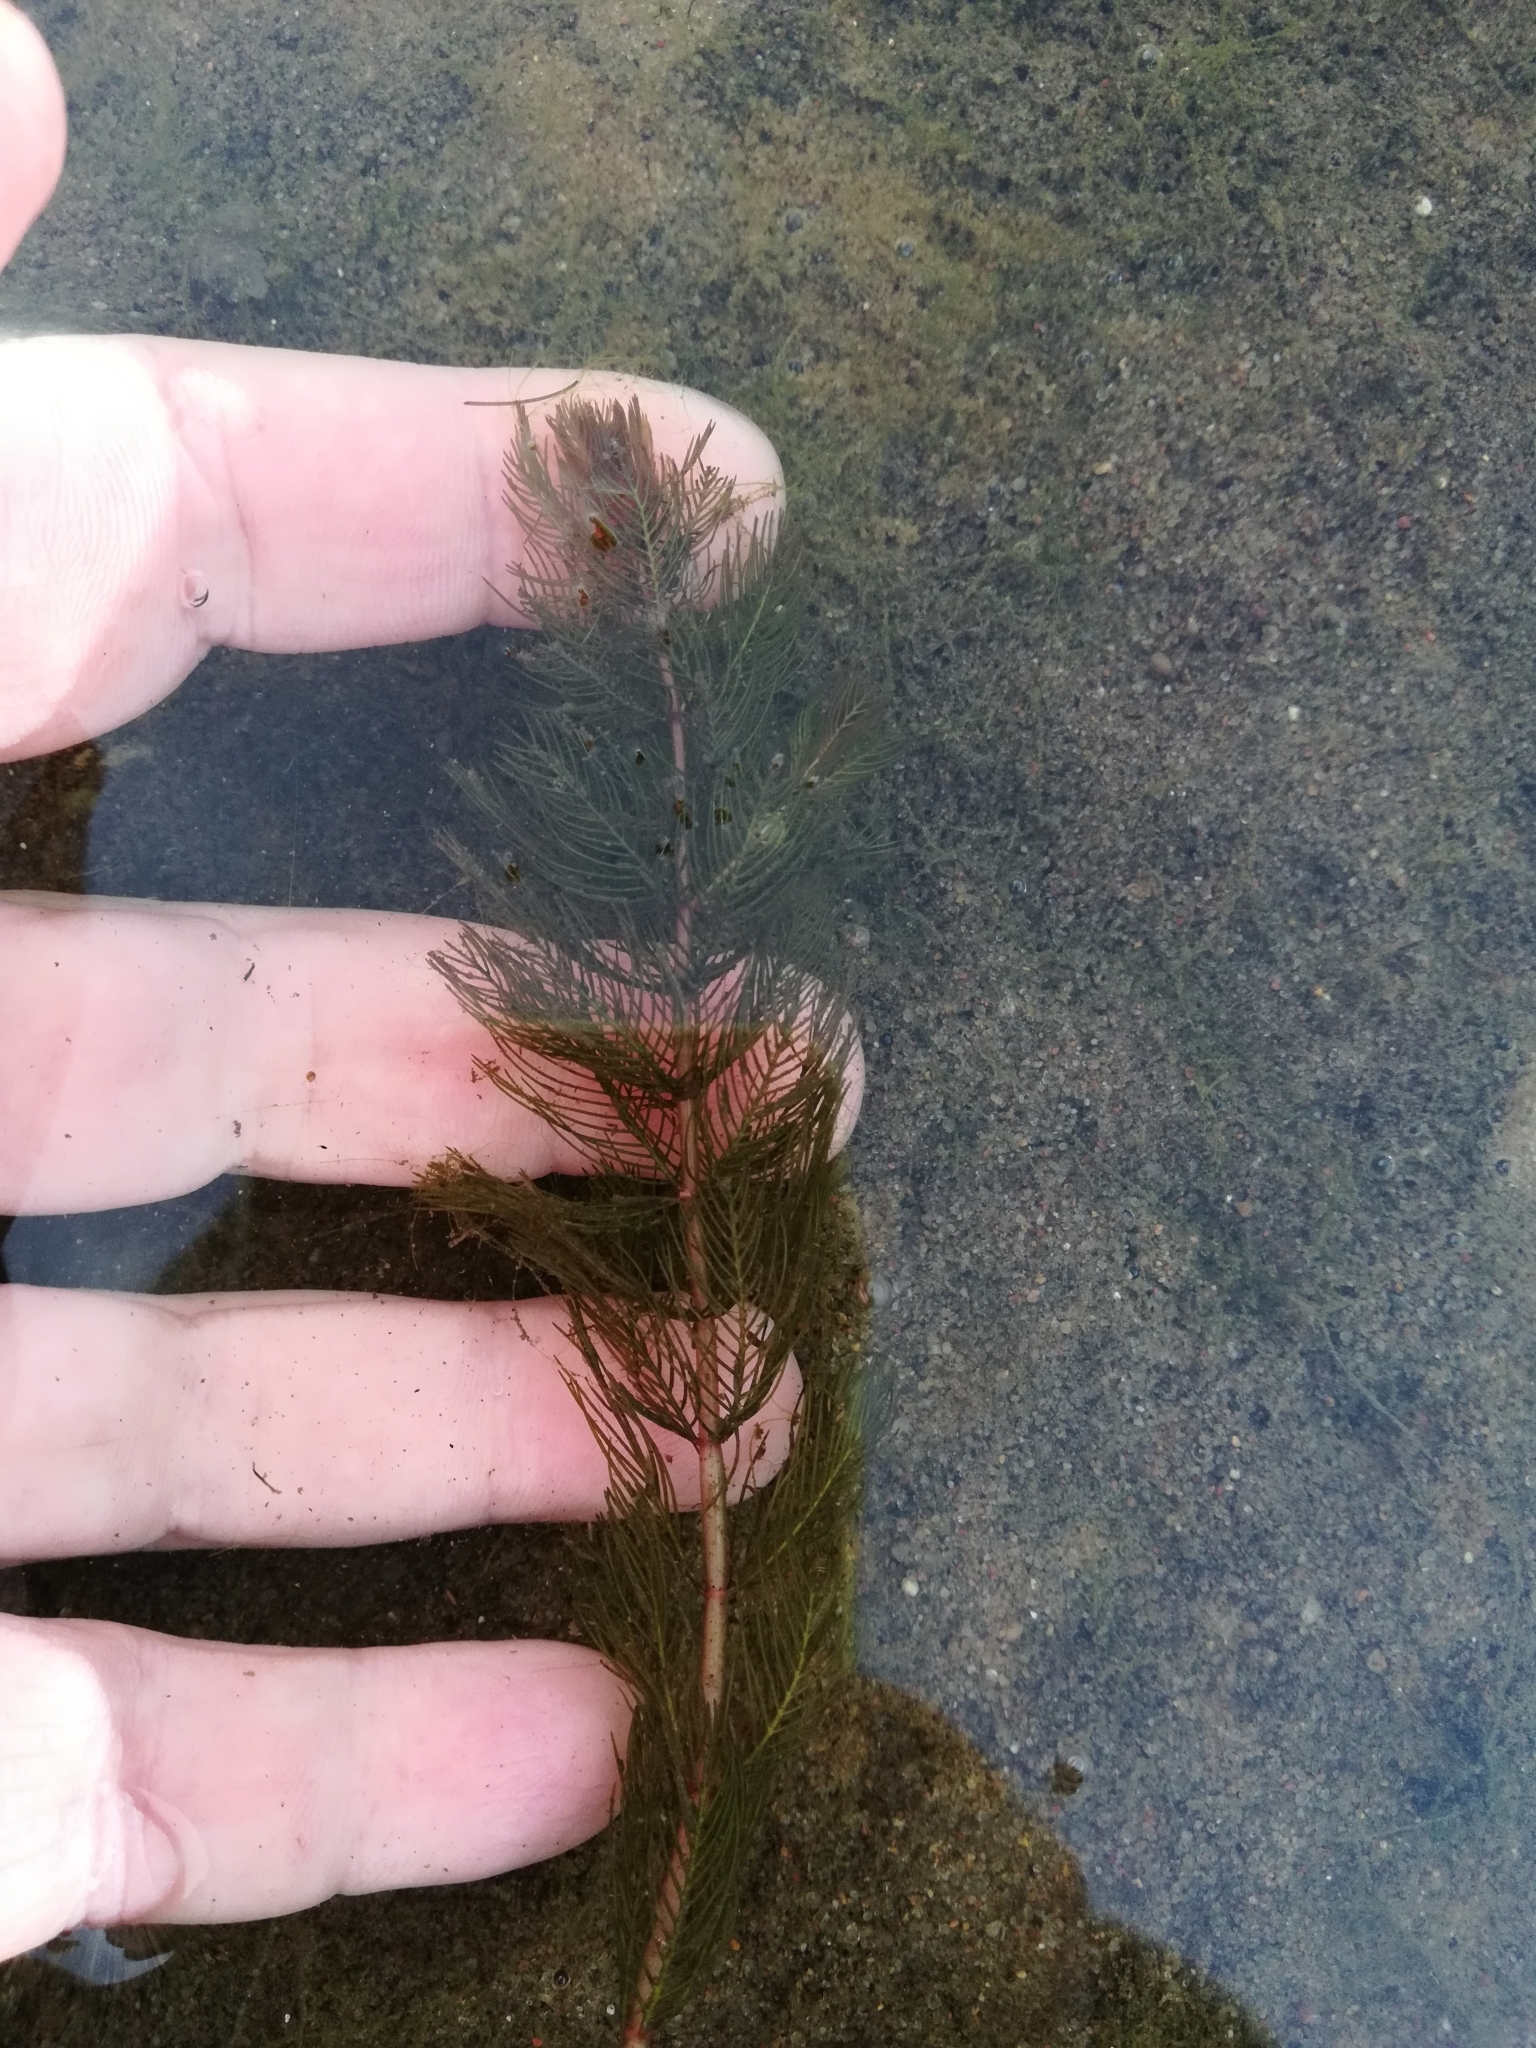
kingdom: Plantae
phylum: Tracheophyta
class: Magnoliopsida
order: Saxifragales
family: Haloragaceae
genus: Myriophyllum
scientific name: Myriophyllum spicatum
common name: Spiked water-milfoil
